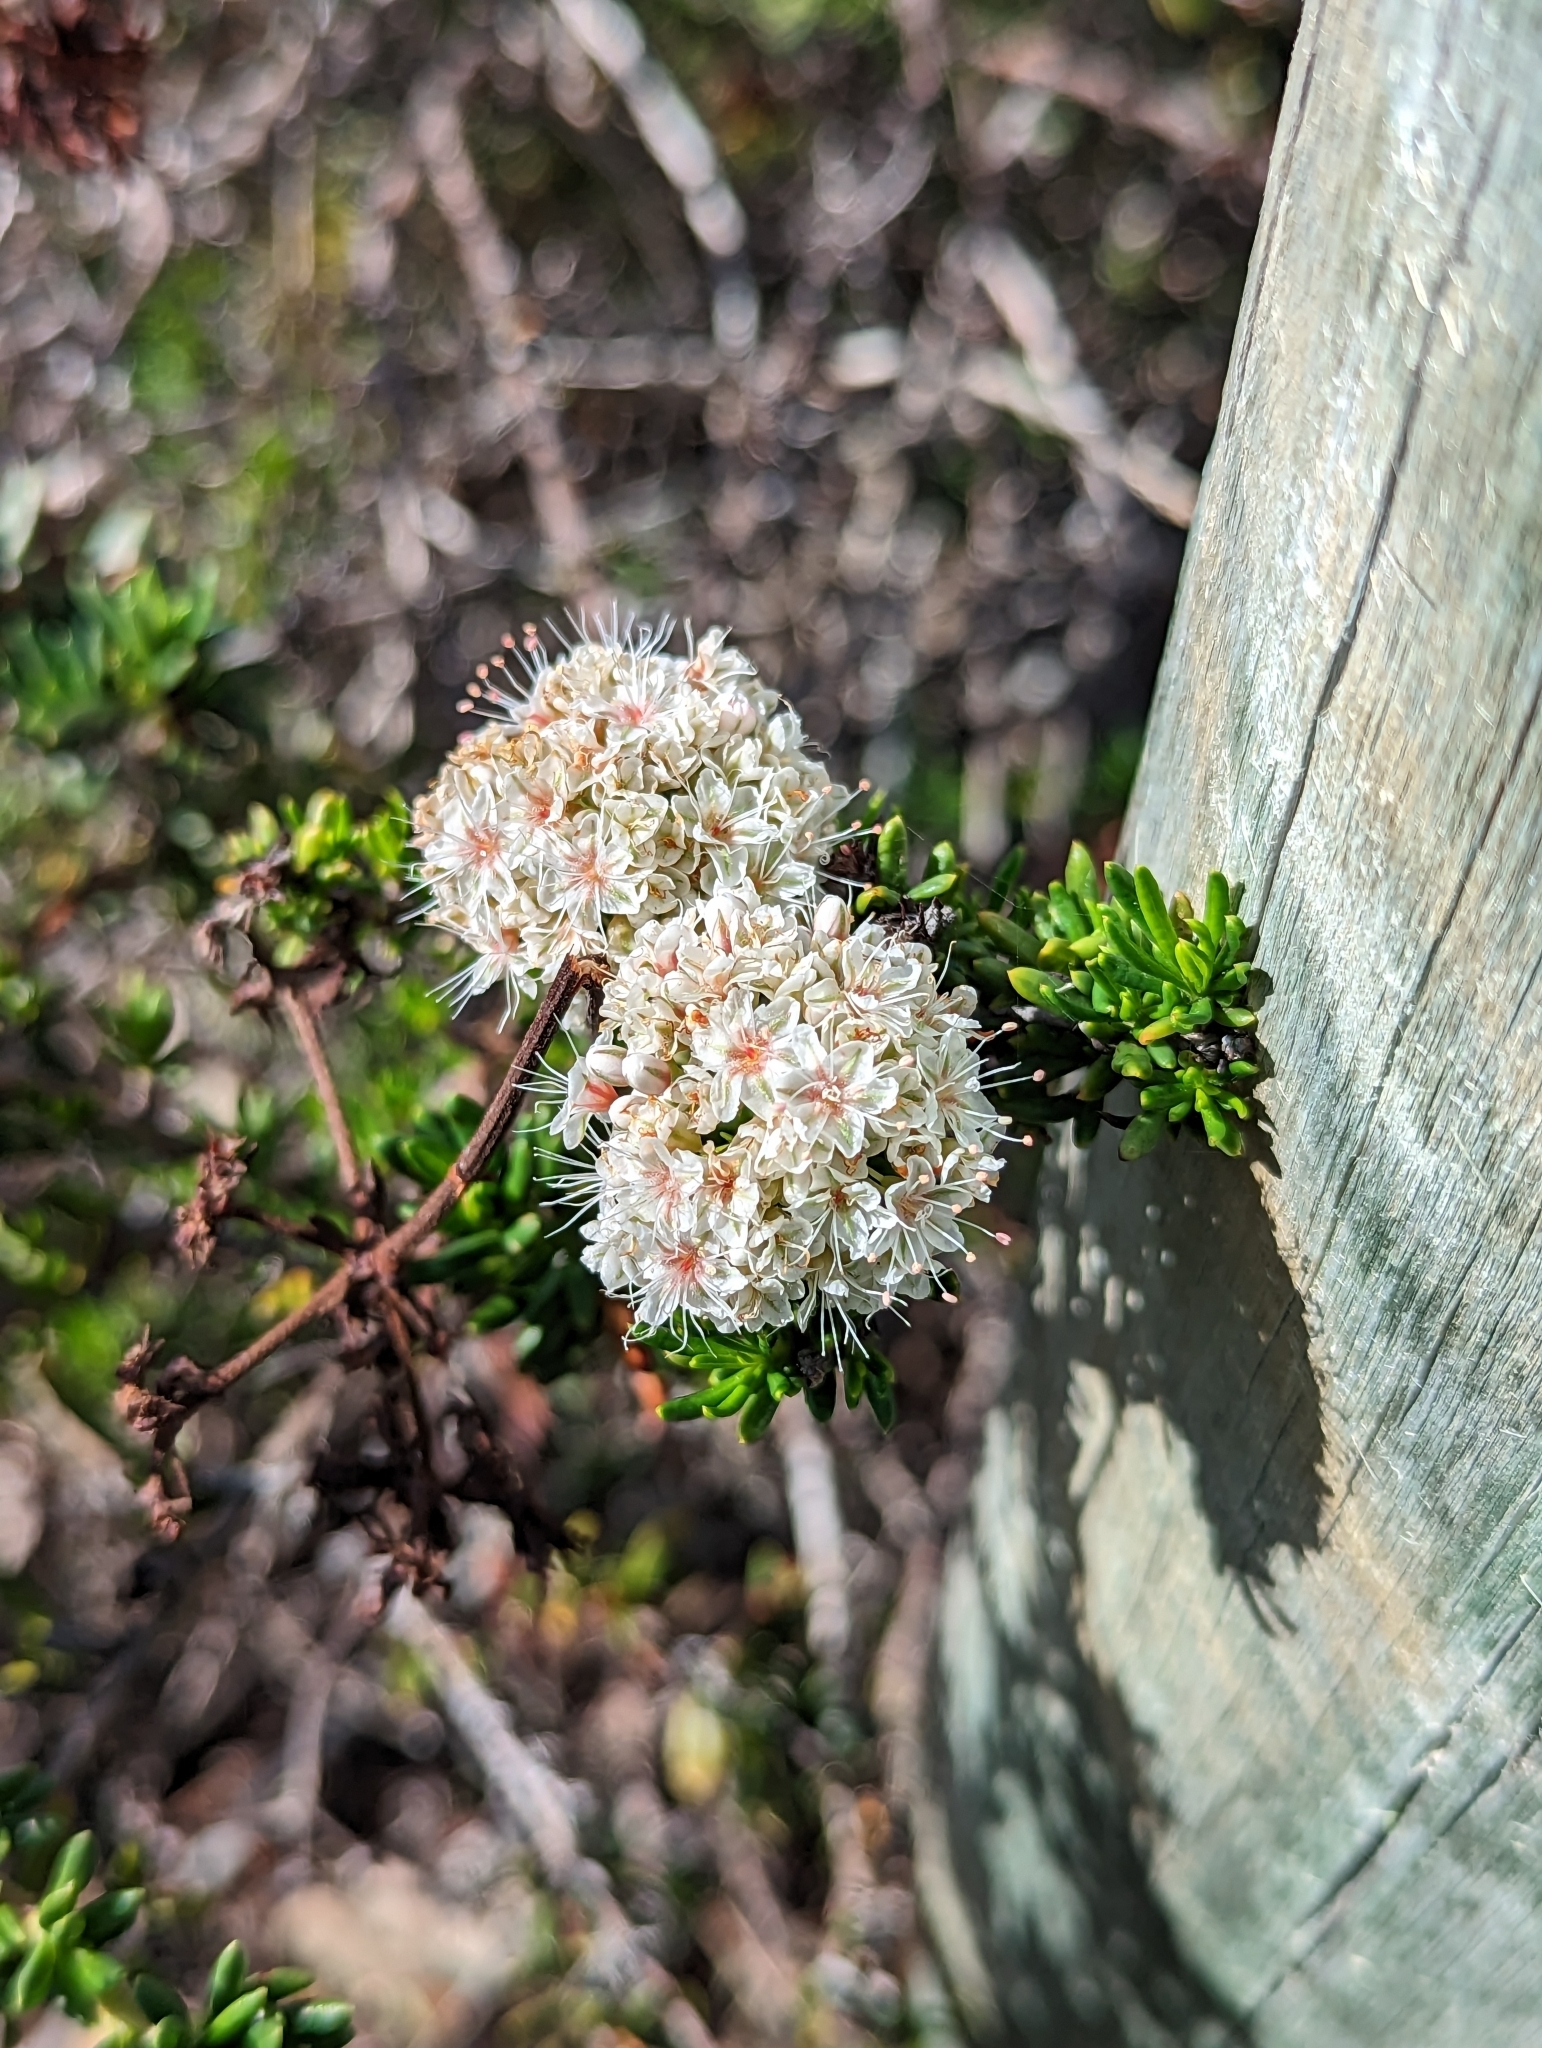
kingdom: Plantae
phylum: Tracheophyta
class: Magnoliopsida
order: Caryophyllales
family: Polygonaceae
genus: Eriogonum
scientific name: Eriogonum fasciculatum
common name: California wild buckwheat
